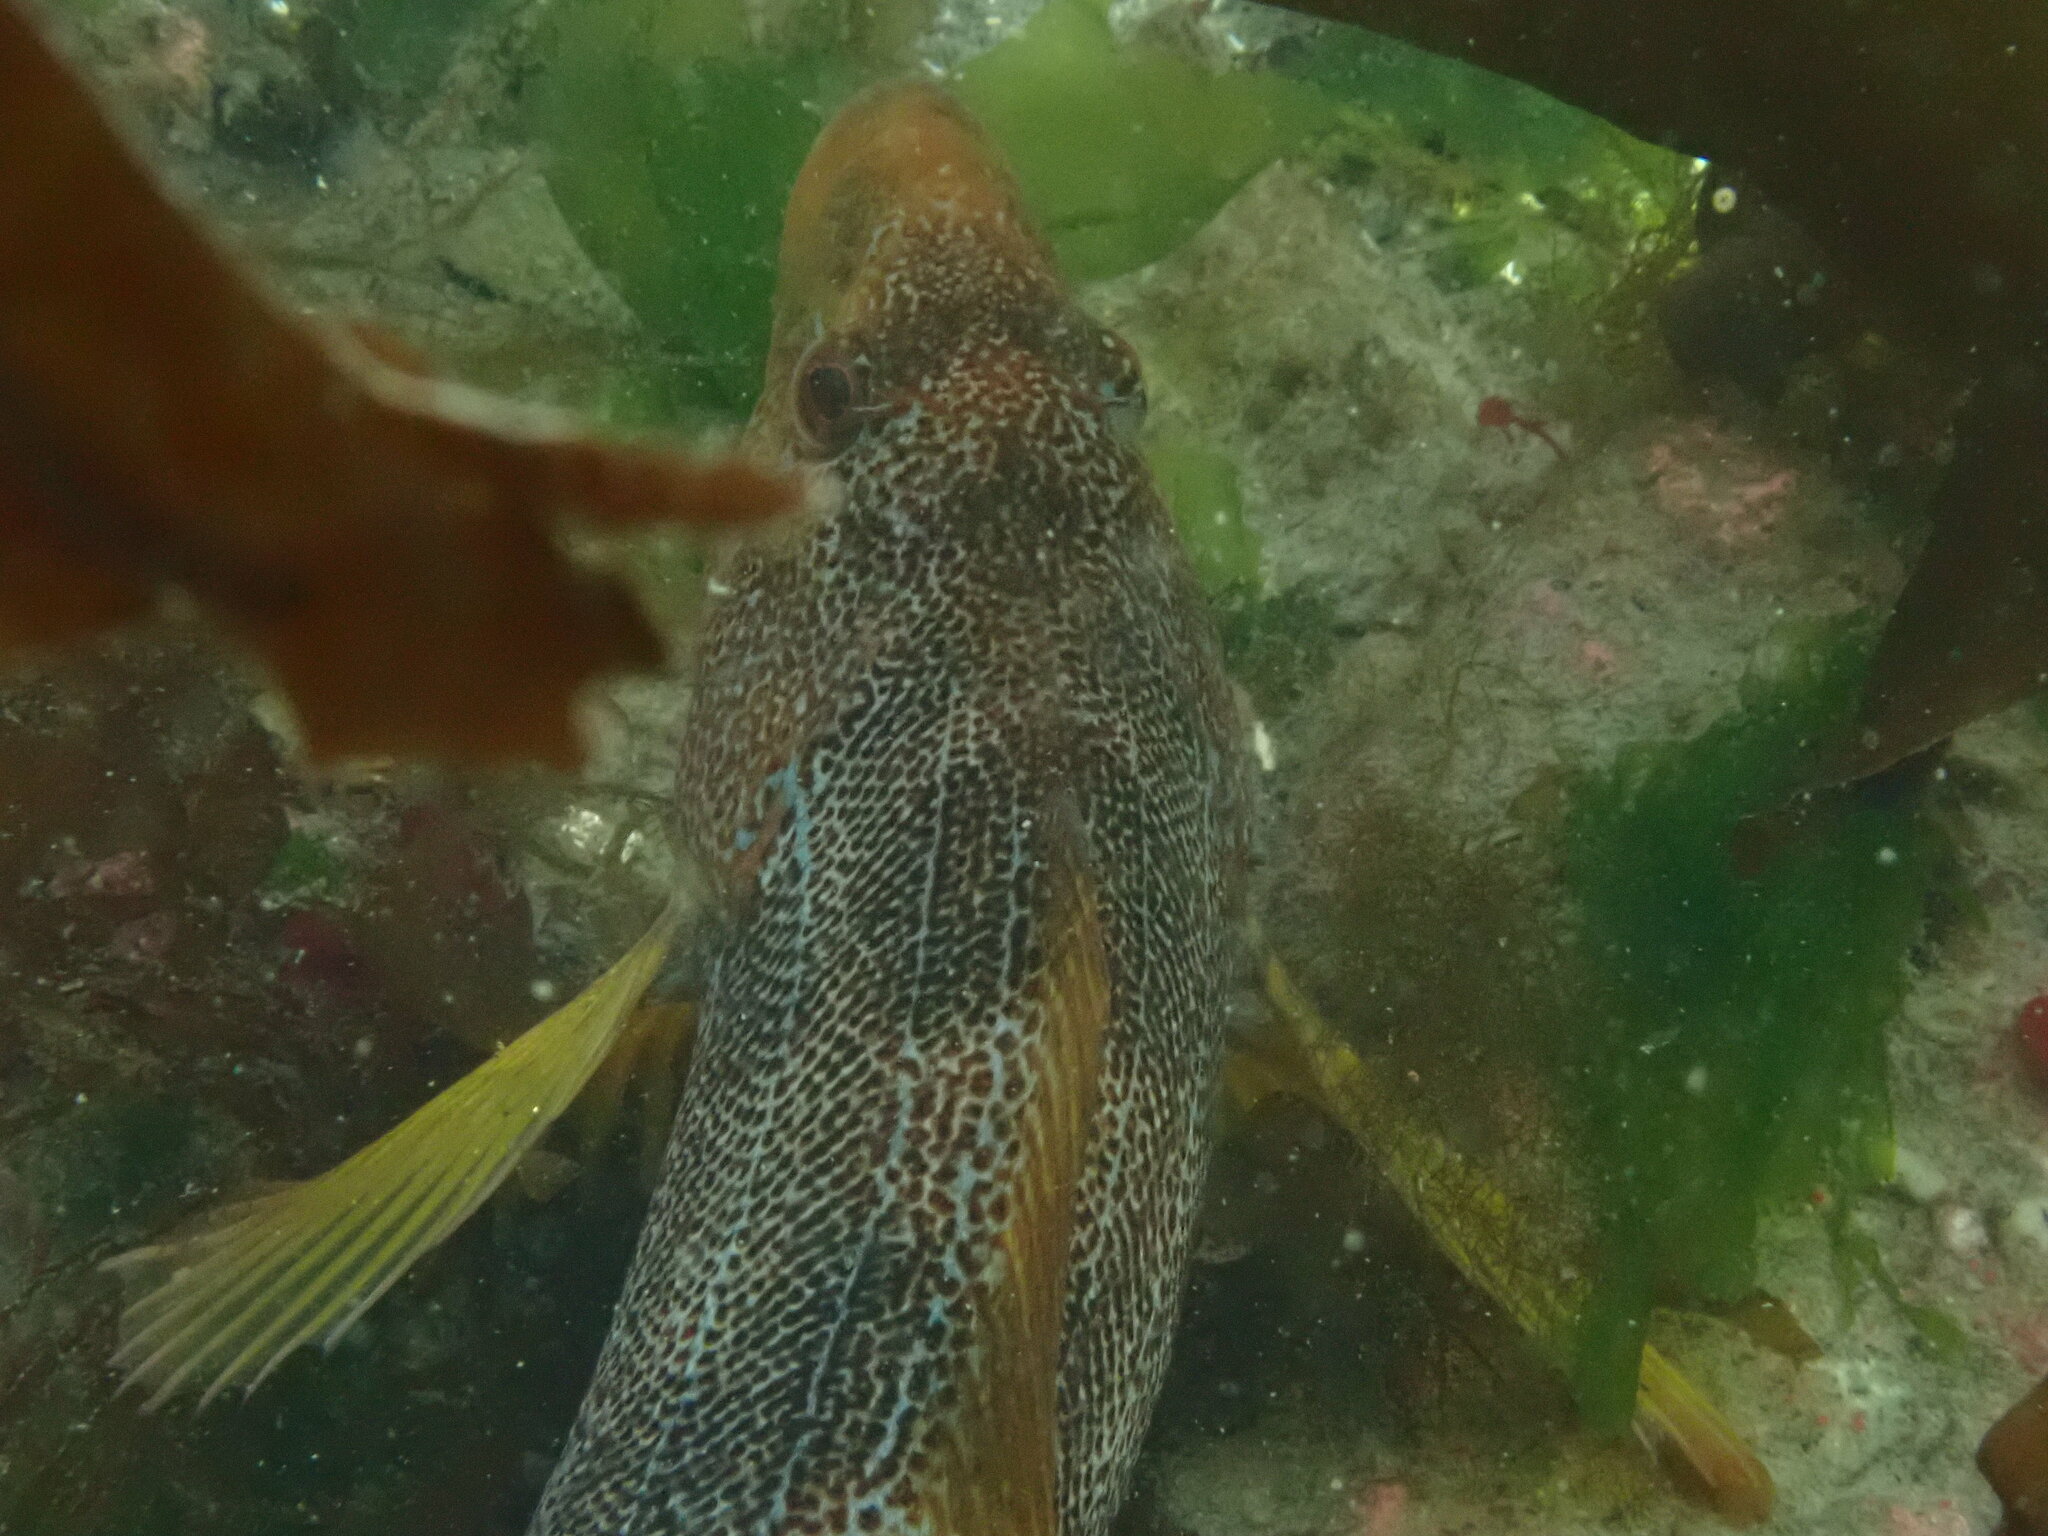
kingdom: Animalia
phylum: Chordata
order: Scorpaeniformes
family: Hexagrammidae
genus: Hexagrammos
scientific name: Hexagrammos decagrammus
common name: Kelp greenling
